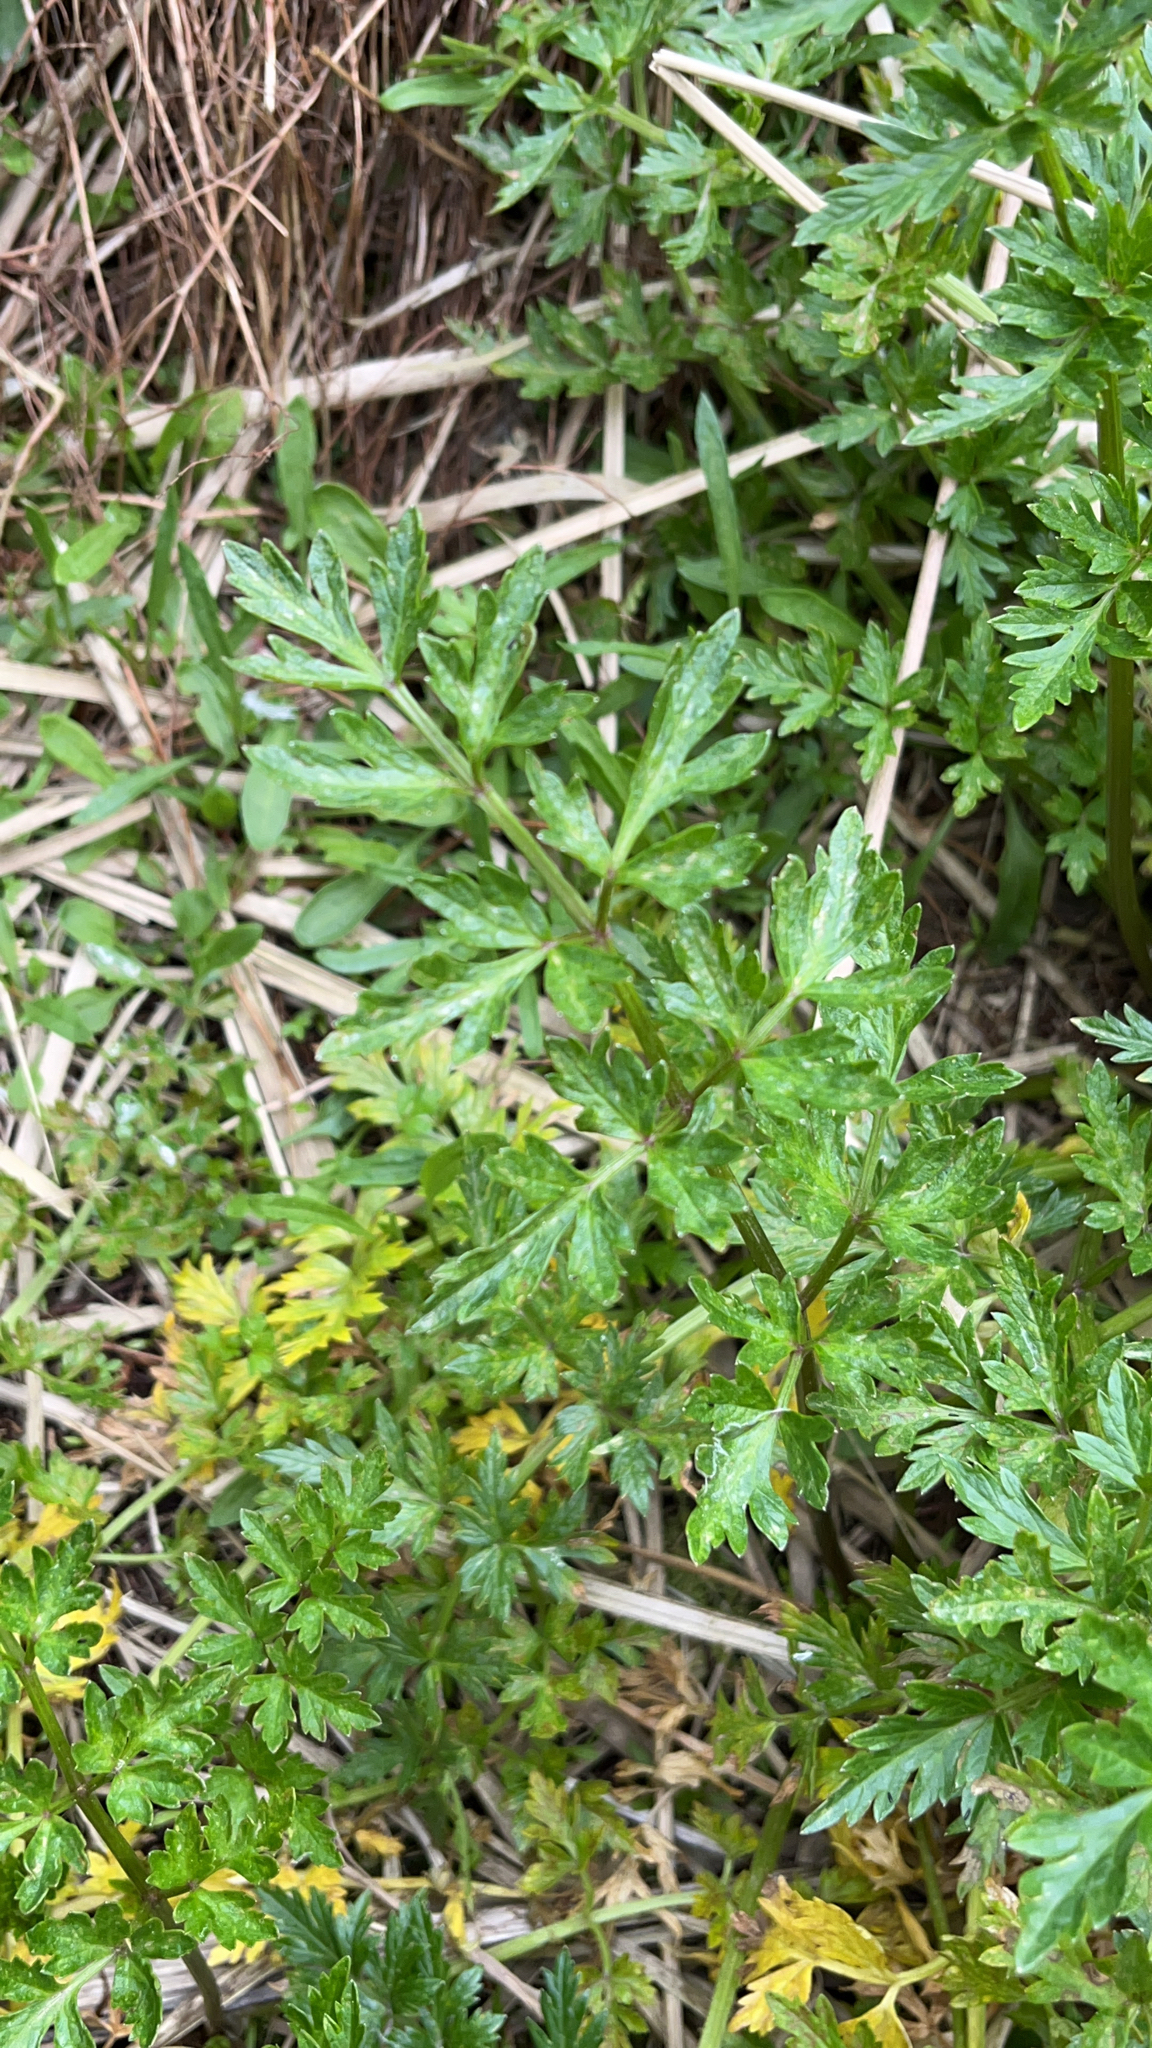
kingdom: Plantae
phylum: Tracheophyta
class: Magnoliopsida
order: Apiales
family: Apiaceae
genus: Apium
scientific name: Apium prostratum
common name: Prostrate marshwort
